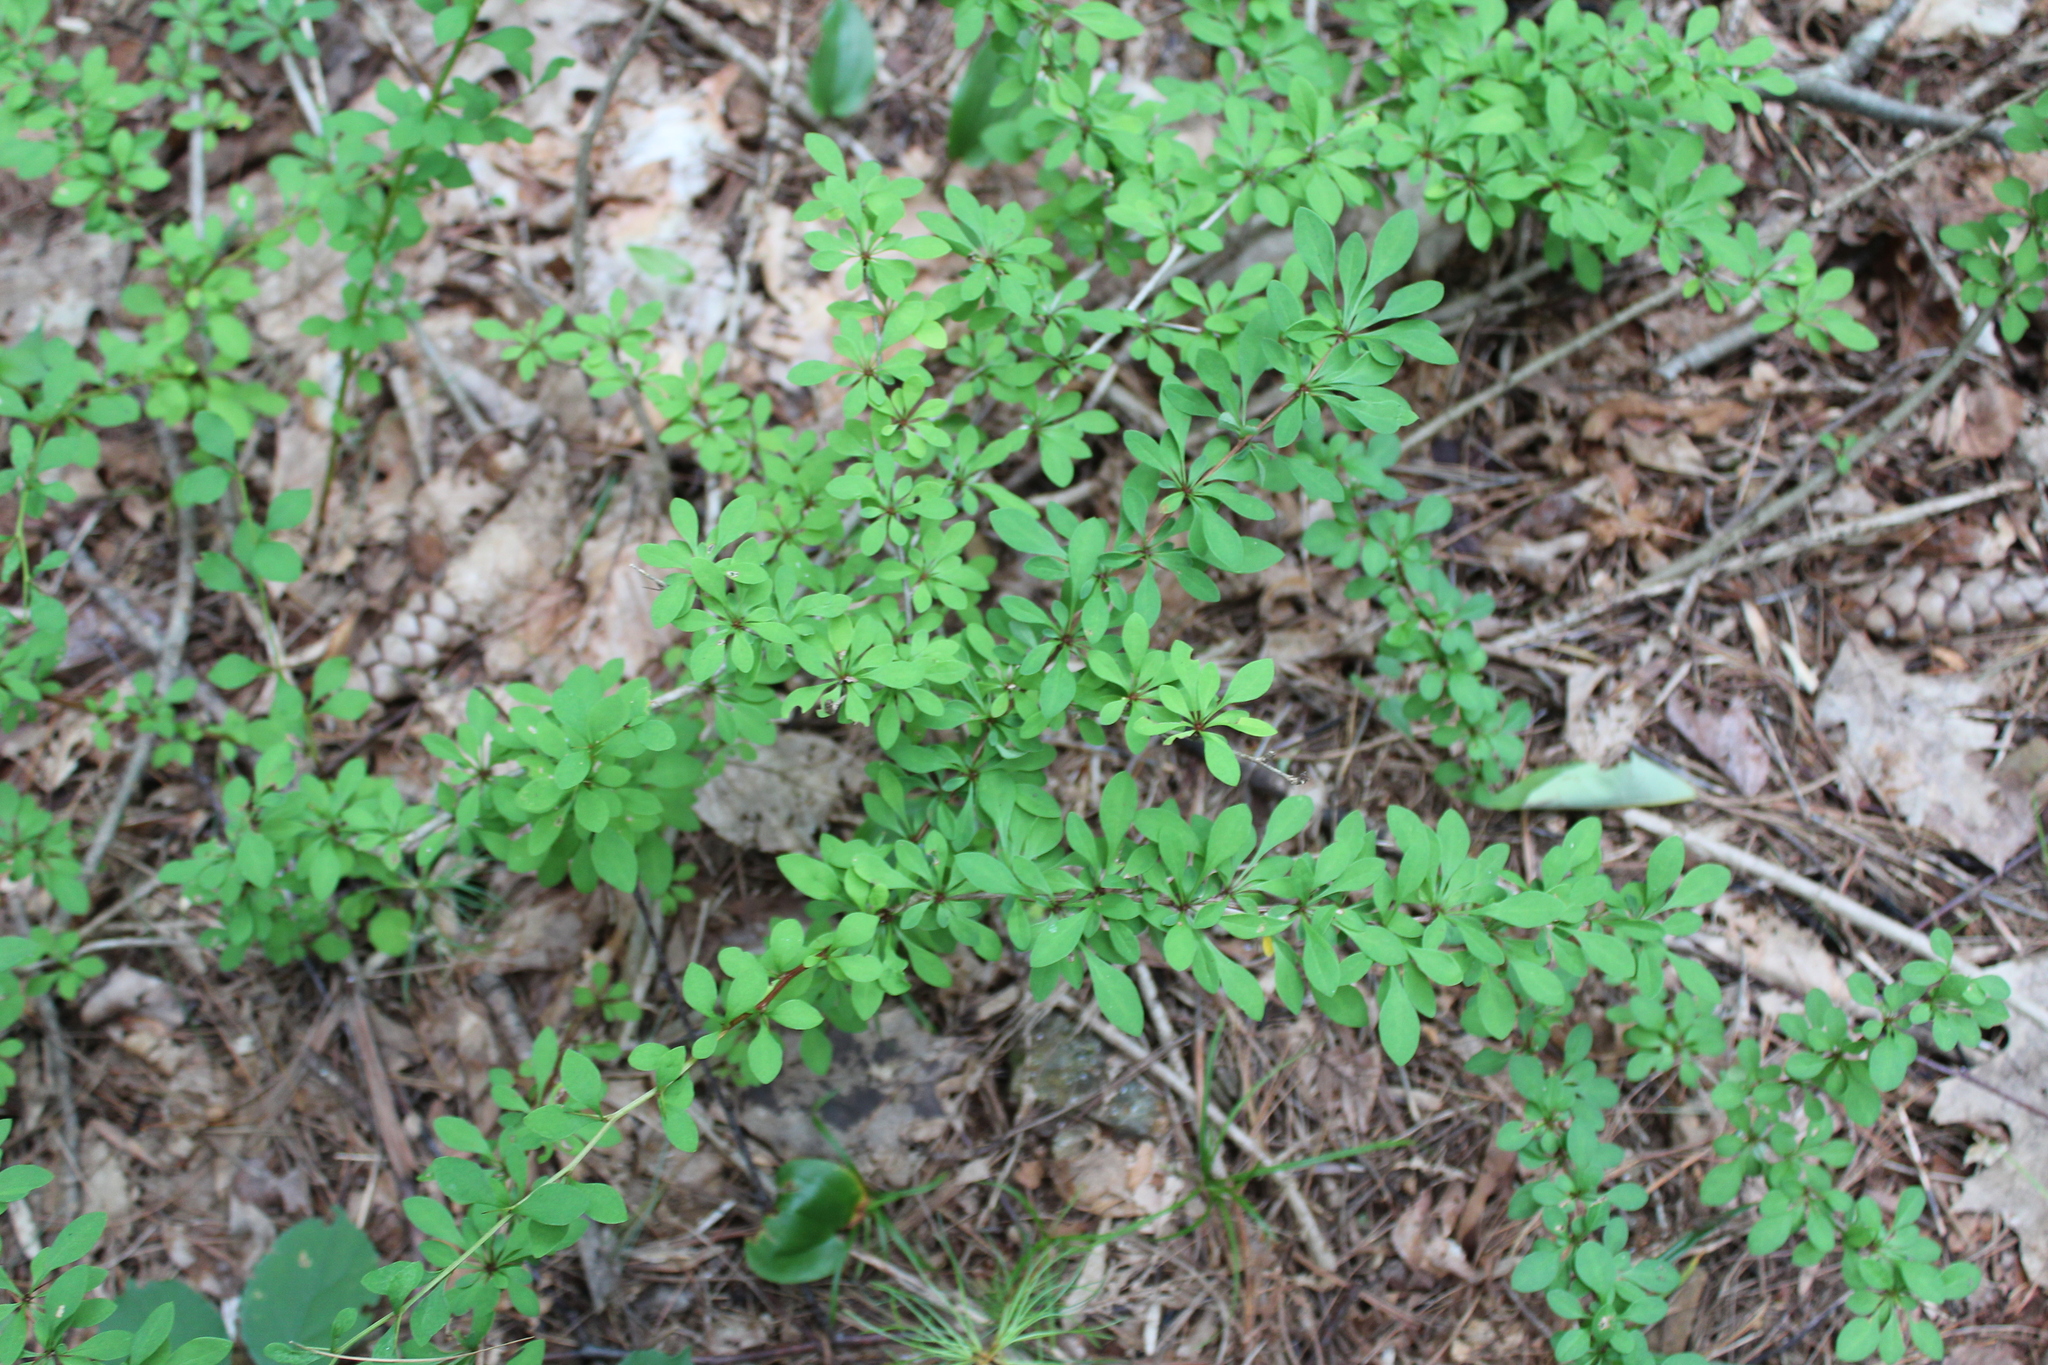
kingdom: Plantae
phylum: Tracheophyta
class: Magnoliopsida
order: Ranunculales
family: Berberidaceae
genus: Berberis
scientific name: Berberis thunbergii
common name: Japanese barberry
